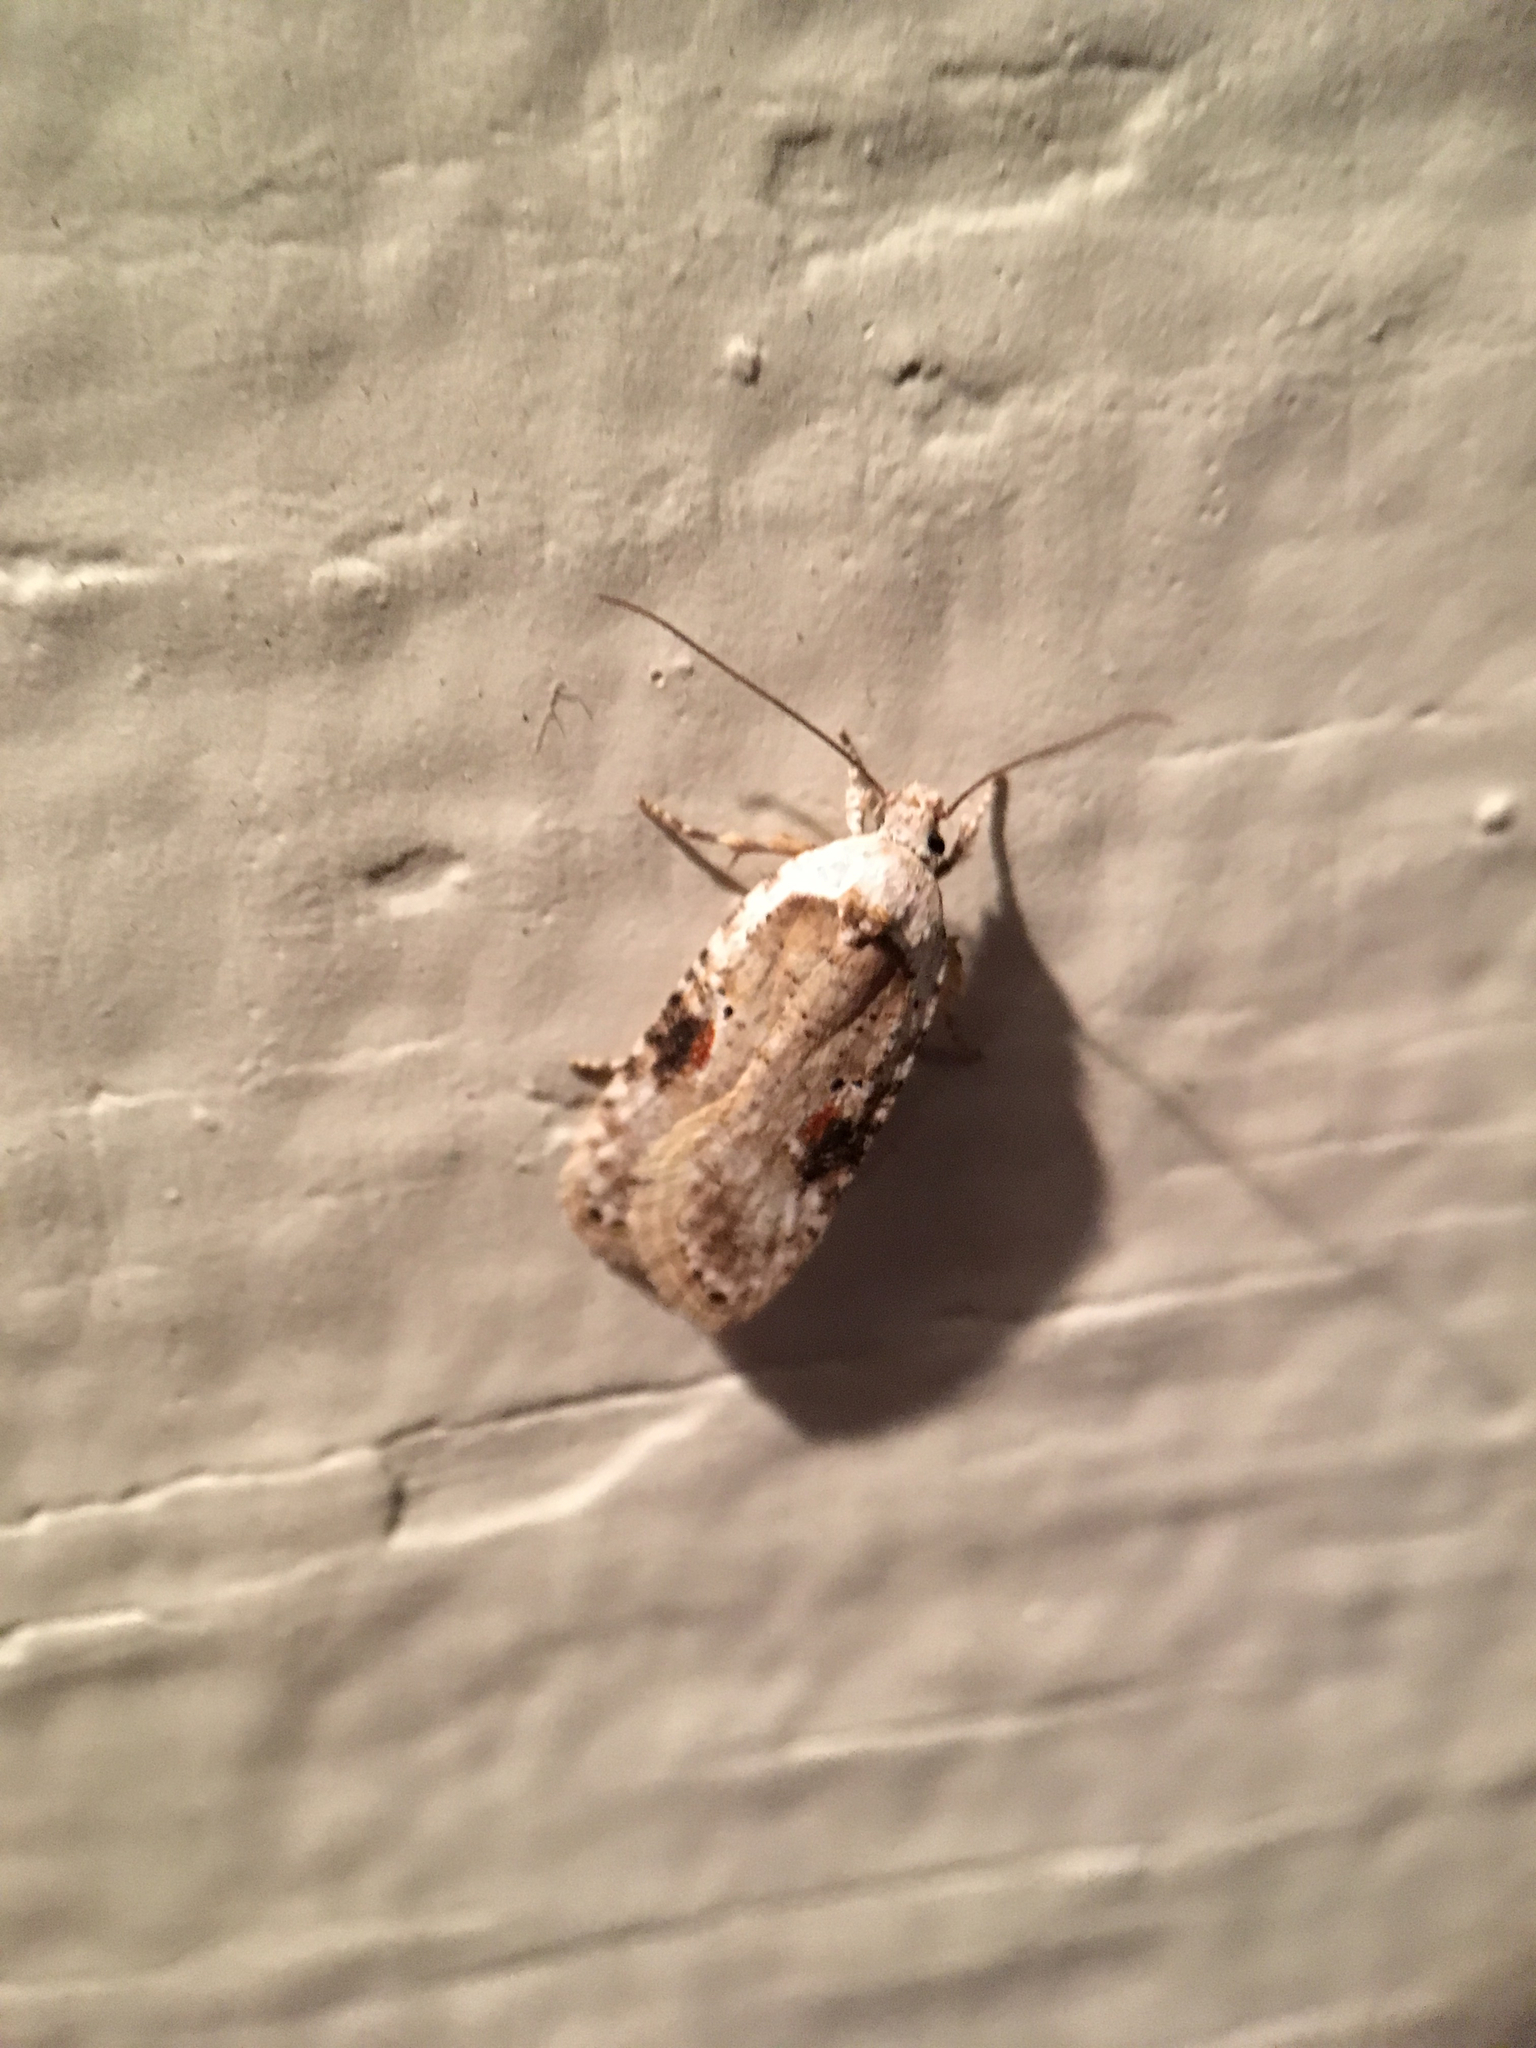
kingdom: Animalia
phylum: Arthropoda
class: Insecta
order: Lepidoptera
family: Depressariidae
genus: Agonopterix
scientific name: Agonopterix alstroemeriana
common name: Moth
